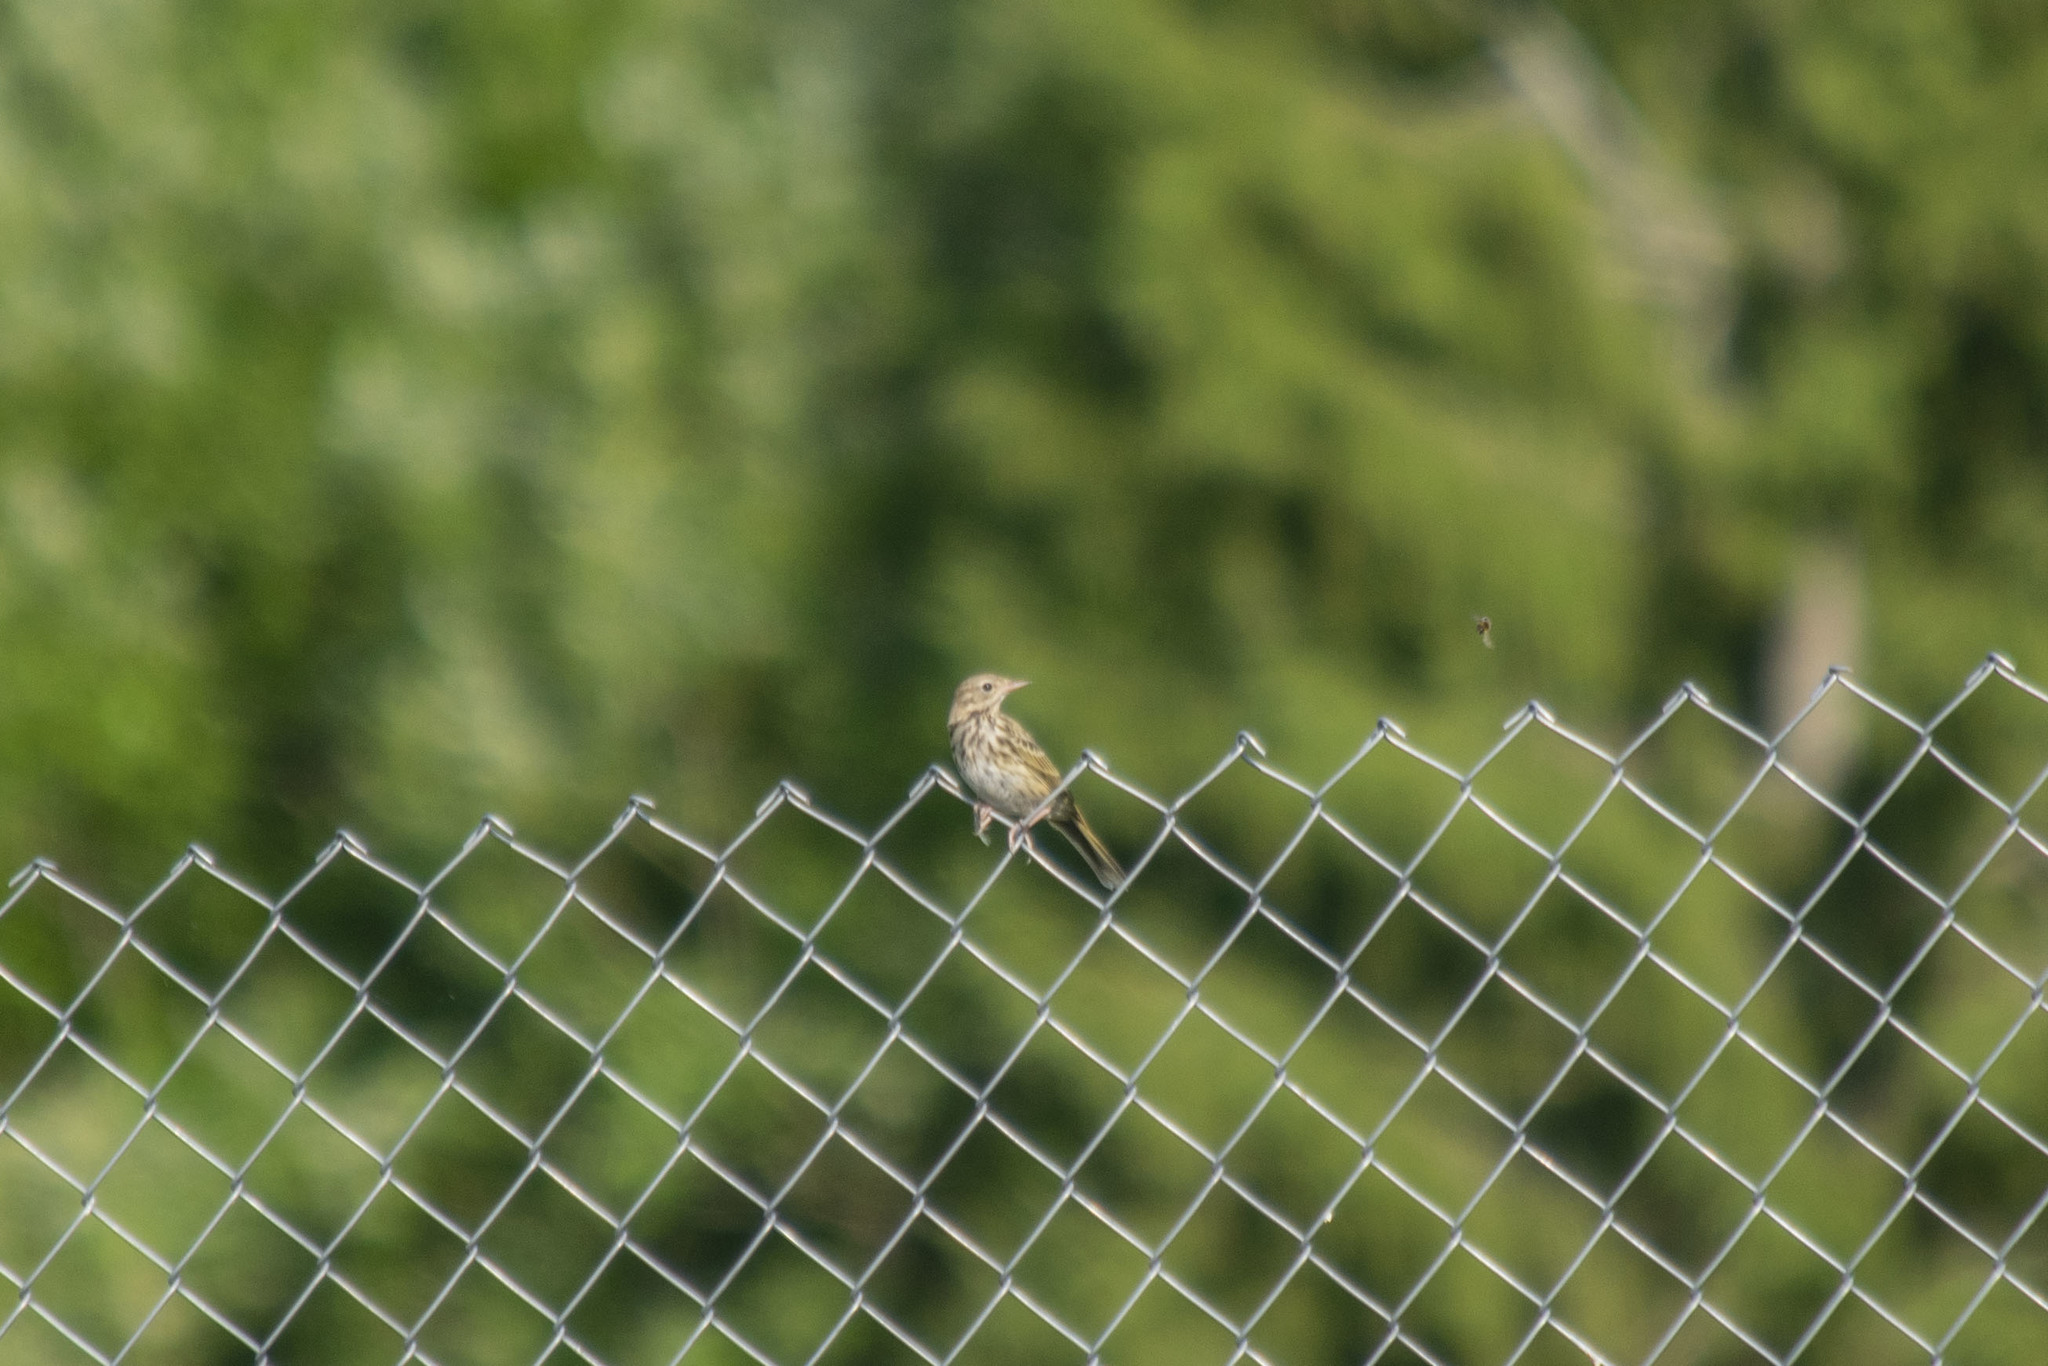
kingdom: Animalia
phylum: Chordata
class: Aves
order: Passeriformes
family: Motacillidae
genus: Anthus
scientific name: Anthus trivialis
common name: Tree pipit
